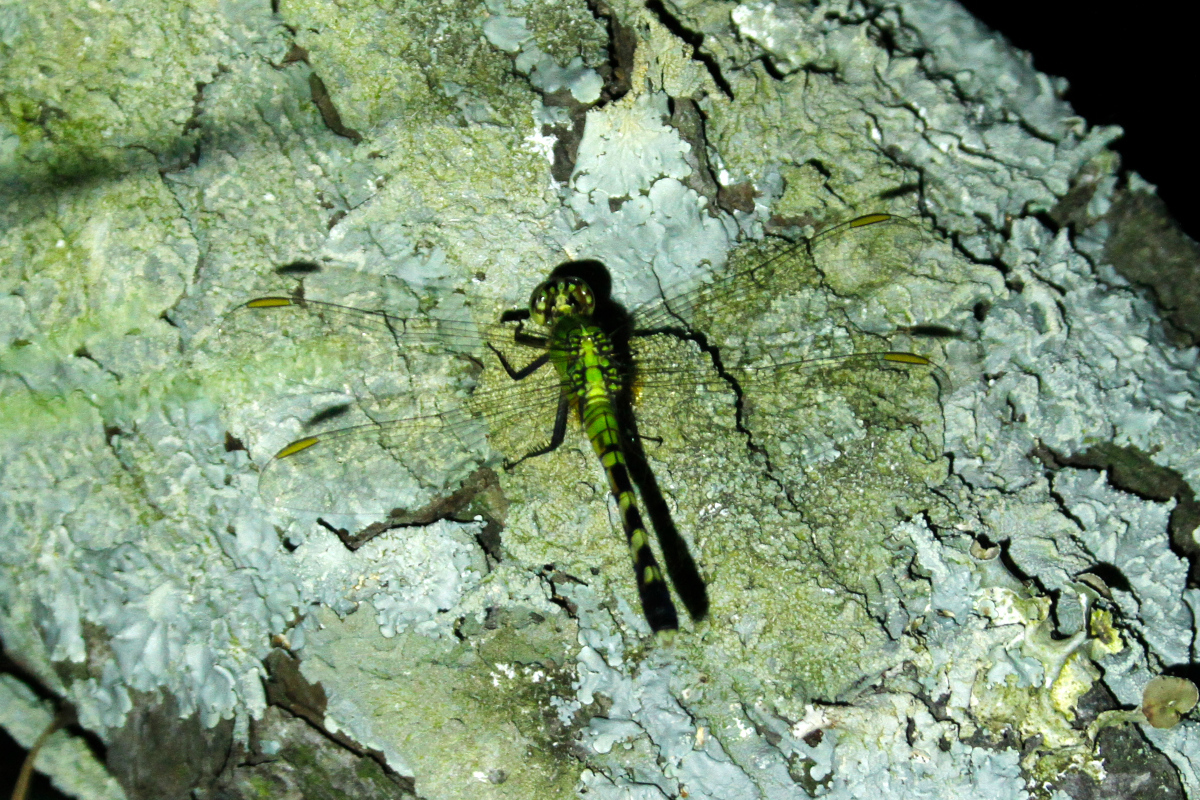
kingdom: Animalia
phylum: Arthropoda
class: Insecta
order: Odonata
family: Libellulidae
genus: Erythemis
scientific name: Erythemis simplicicollis
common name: Eastern pondhawk
